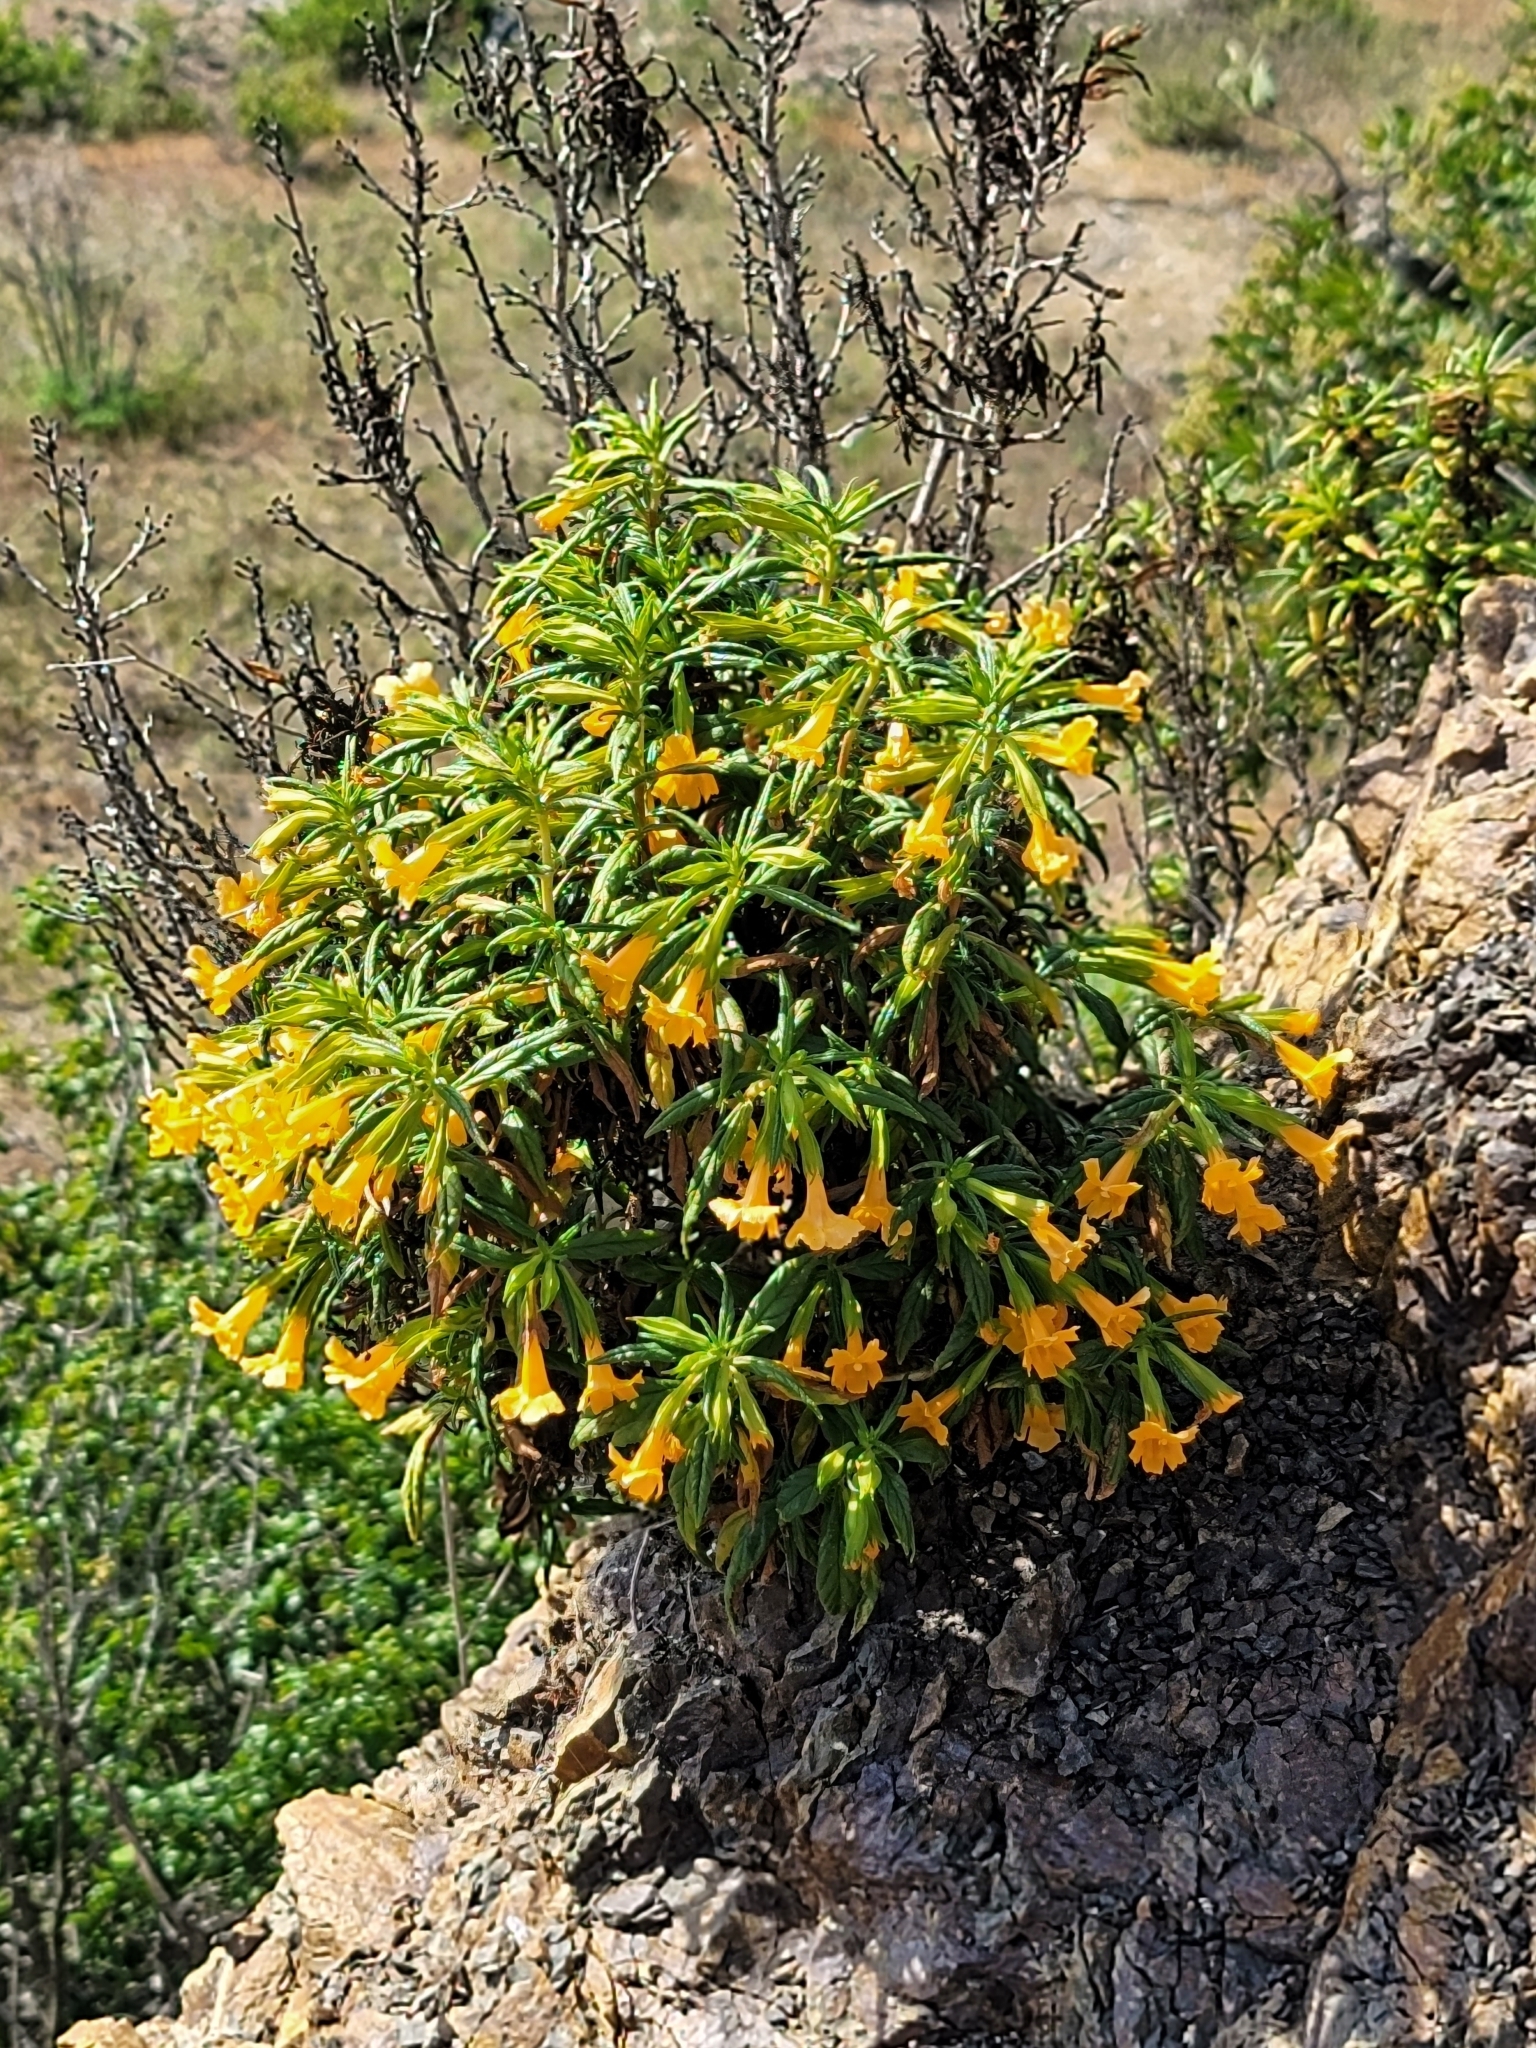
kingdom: Plantae
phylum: Tracheophyta
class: Magnoliopsida
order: Lamiales
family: Phrymaceae
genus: Diplacus
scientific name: Diplacus aurantiacus
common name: Bush monkey-flower
